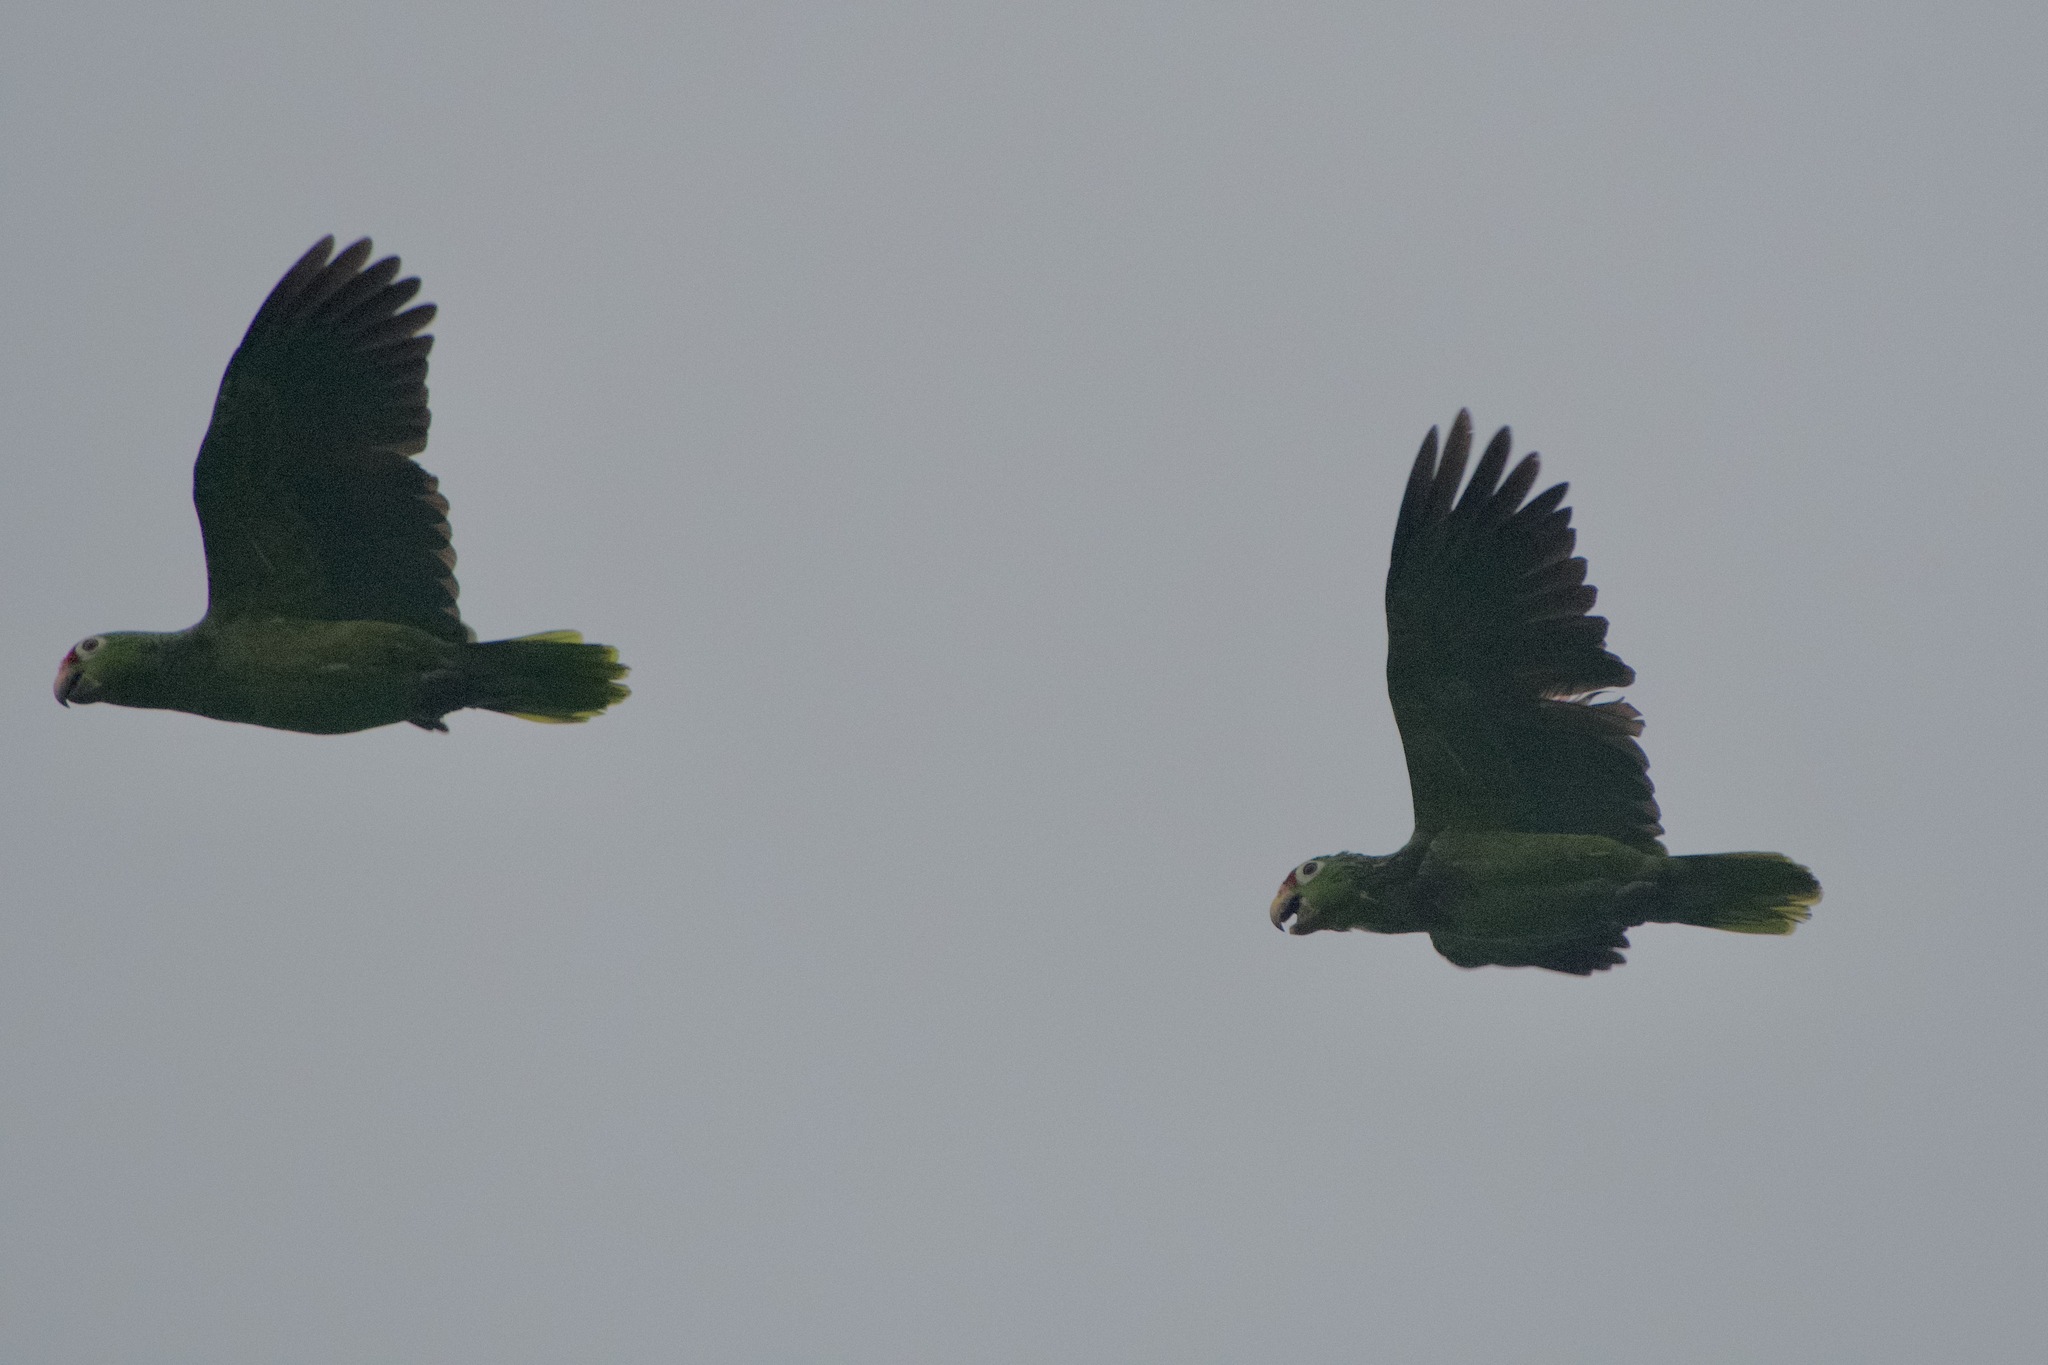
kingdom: Animalia
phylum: Chordata
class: Aves
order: Psittaciformes
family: Psittacidae
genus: Amazona
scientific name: Amazona autumnalis
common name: Red-lored amazon
